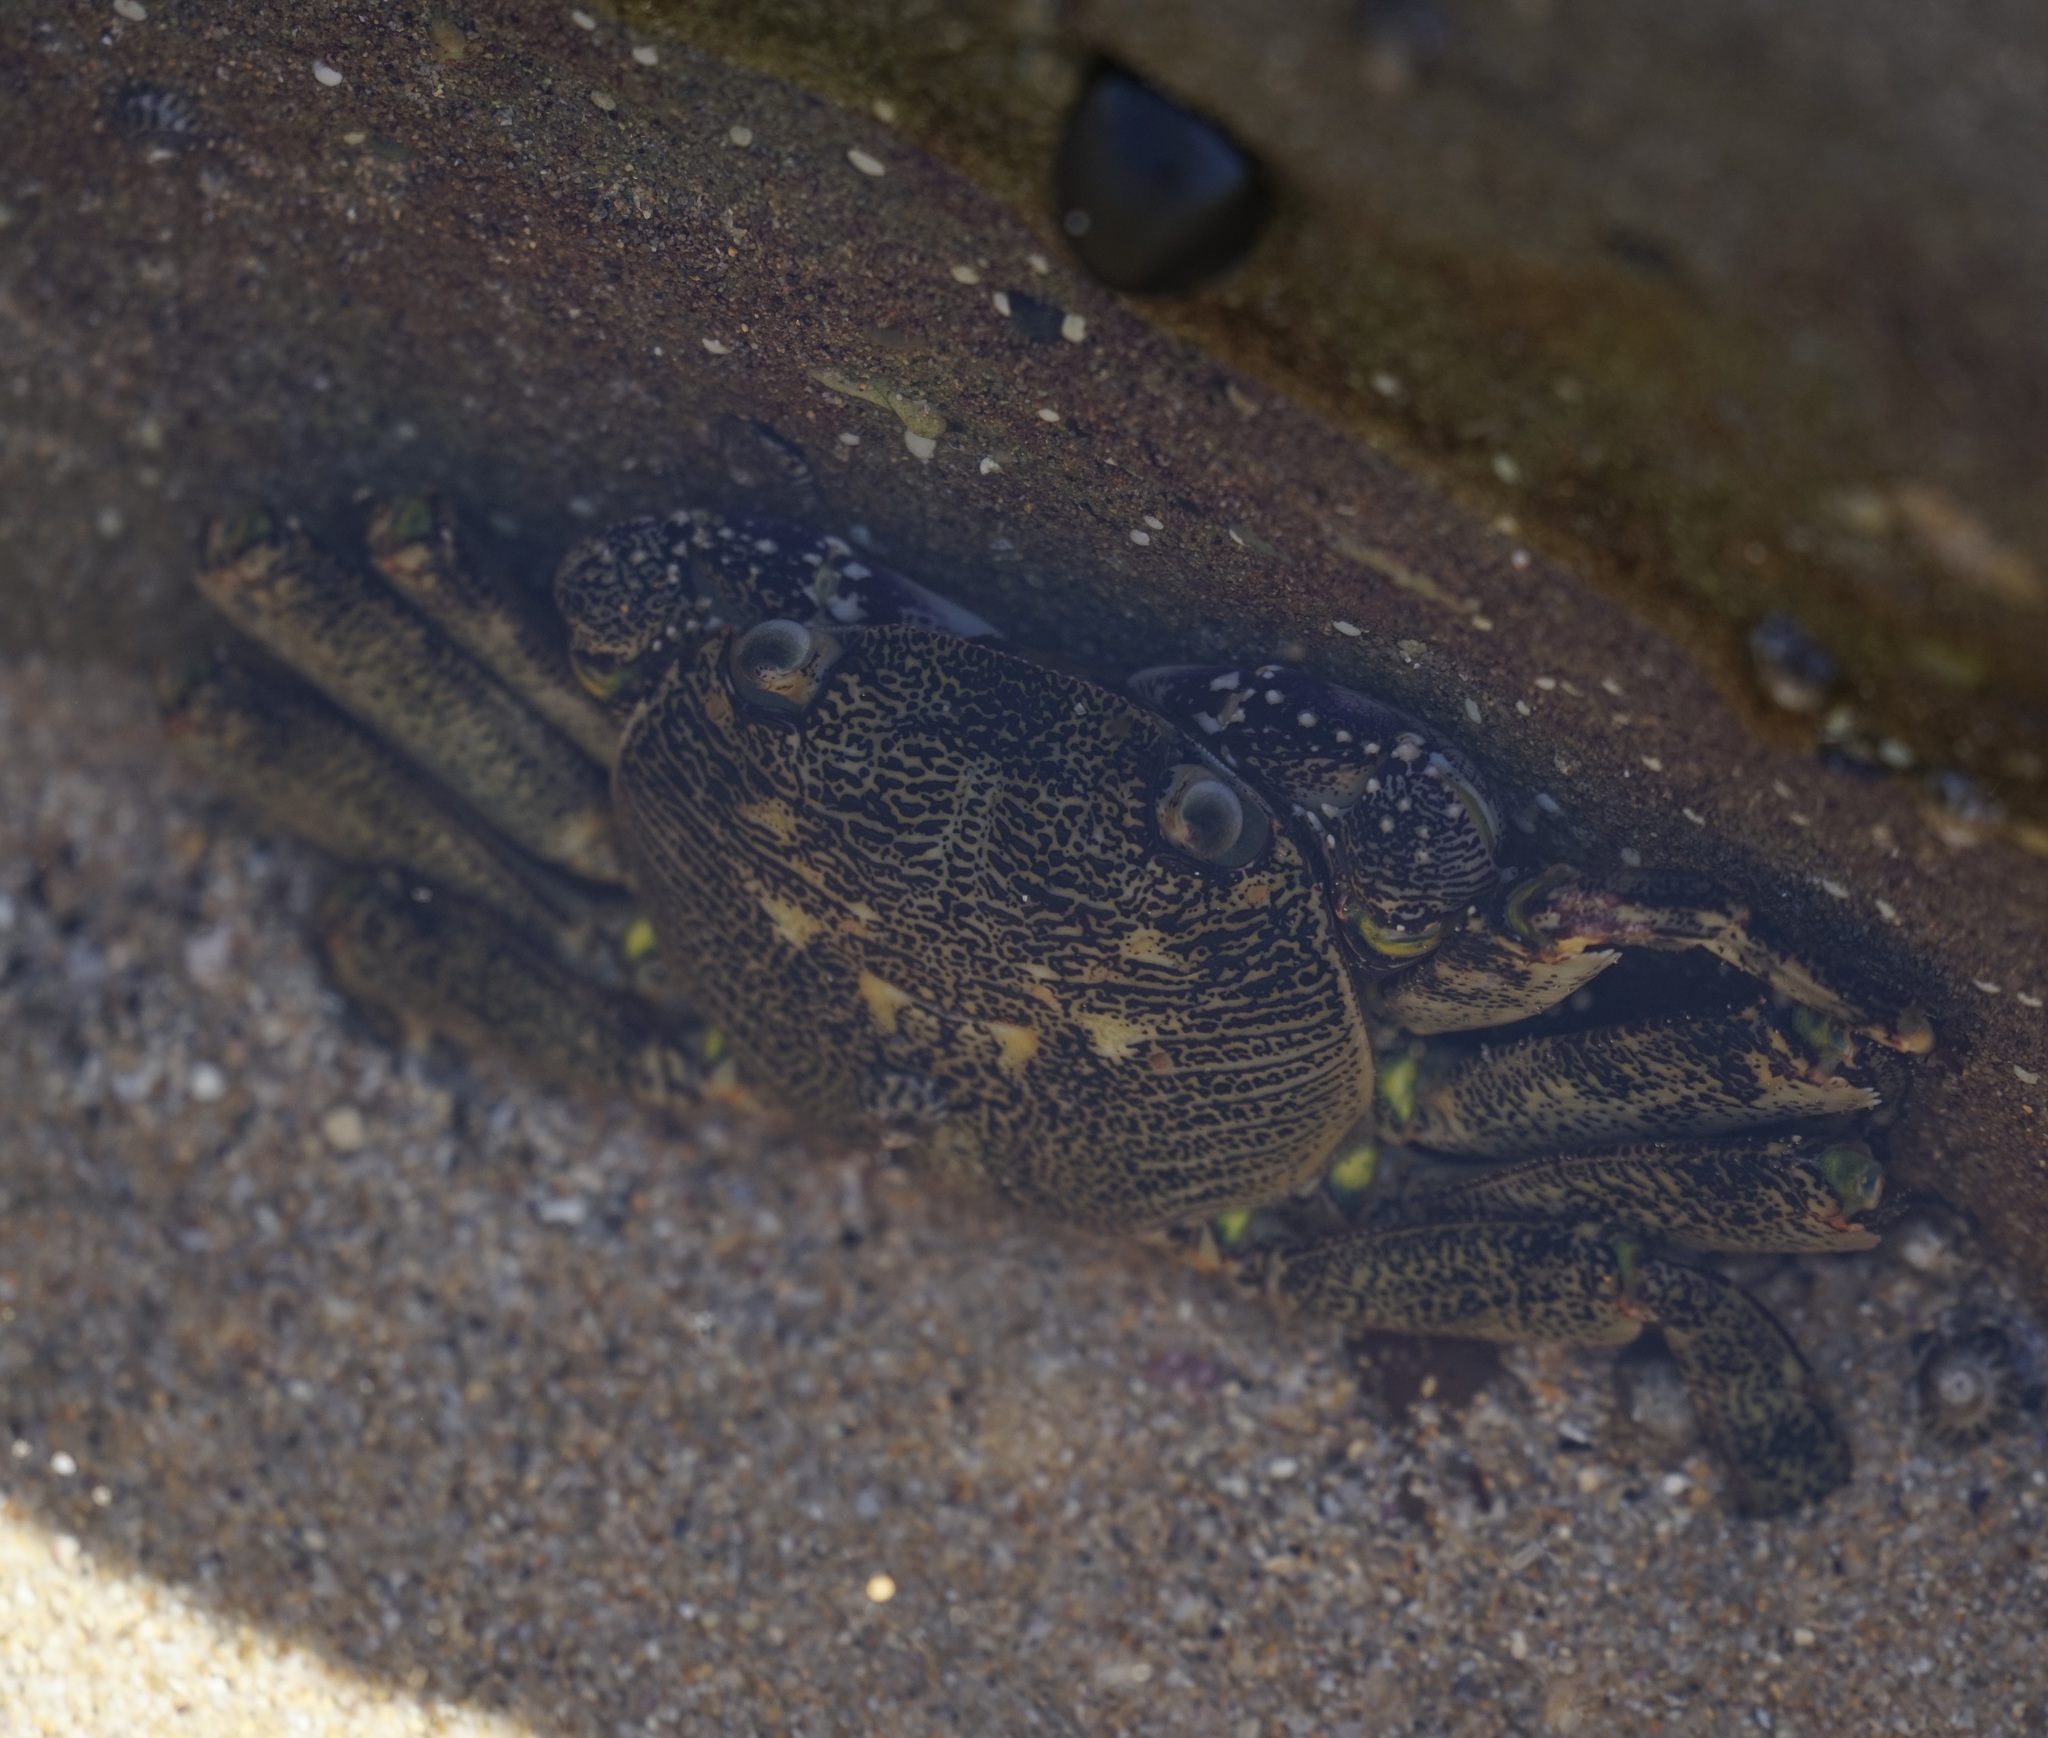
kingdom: Animalia
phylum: Arthropoda
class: Malacostraca
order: Decapoda
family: Grapsidae
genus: Leptograpsus
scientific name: Leptograpsus variegatus
